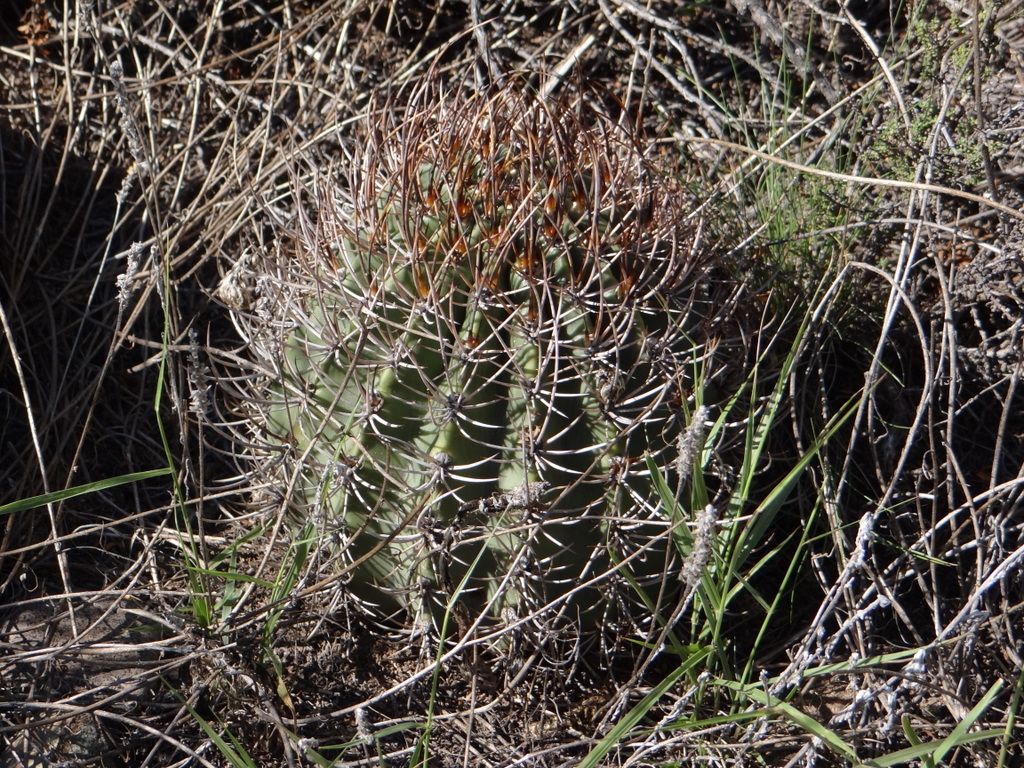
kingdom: Plantae
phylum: Tracheophyta
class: Magnoliopsida
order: Caryophyllales
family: Cactaceae
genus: Acanthocalycium
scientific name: Acanthocalycium leucanthum
